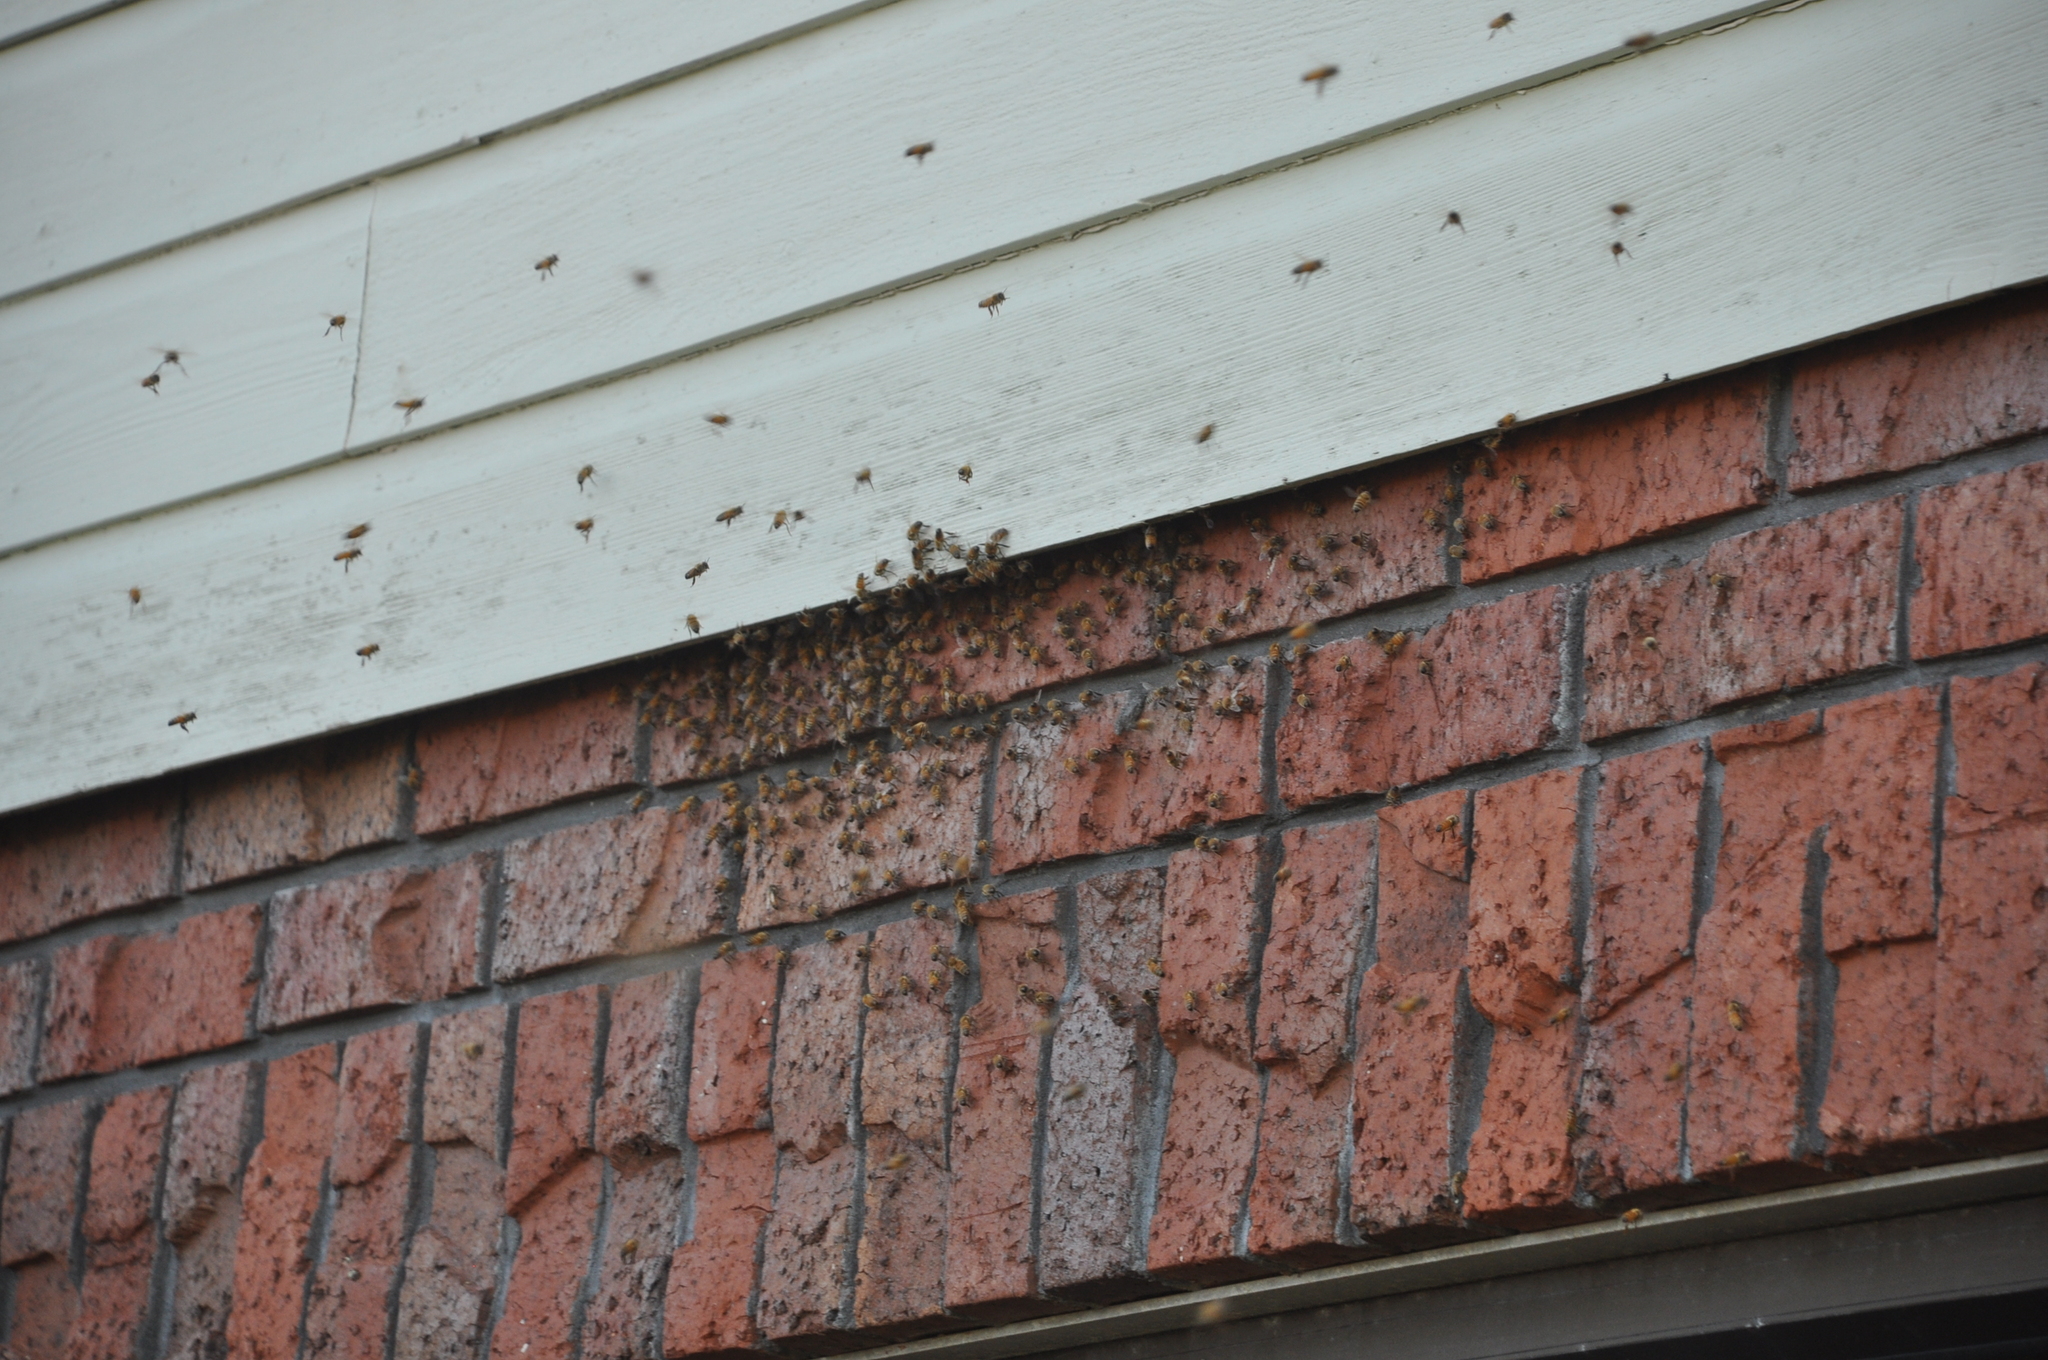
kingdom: Animalia
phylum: Arthropoda
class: Insecta
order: Hymenoptera
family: Apidae
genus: Apis
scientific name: Apis mellifera
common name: Honey bee
